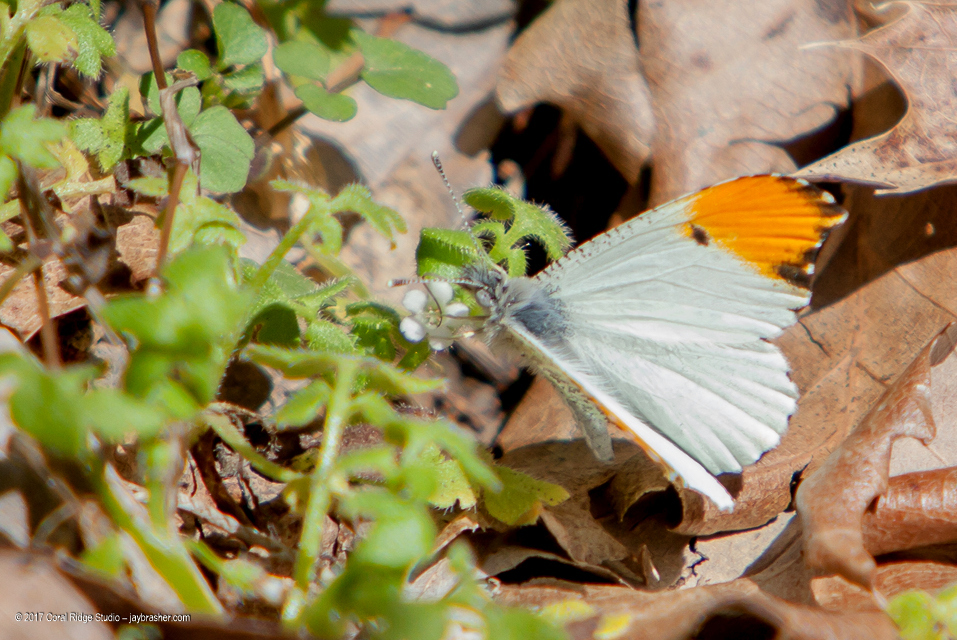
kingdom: Animalia
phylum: Arthropoda
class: Insecta
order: Lepidoptera
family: Pieridae
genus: Anthocharis
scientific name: Anthocharis midea
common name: Falcate orangetip
